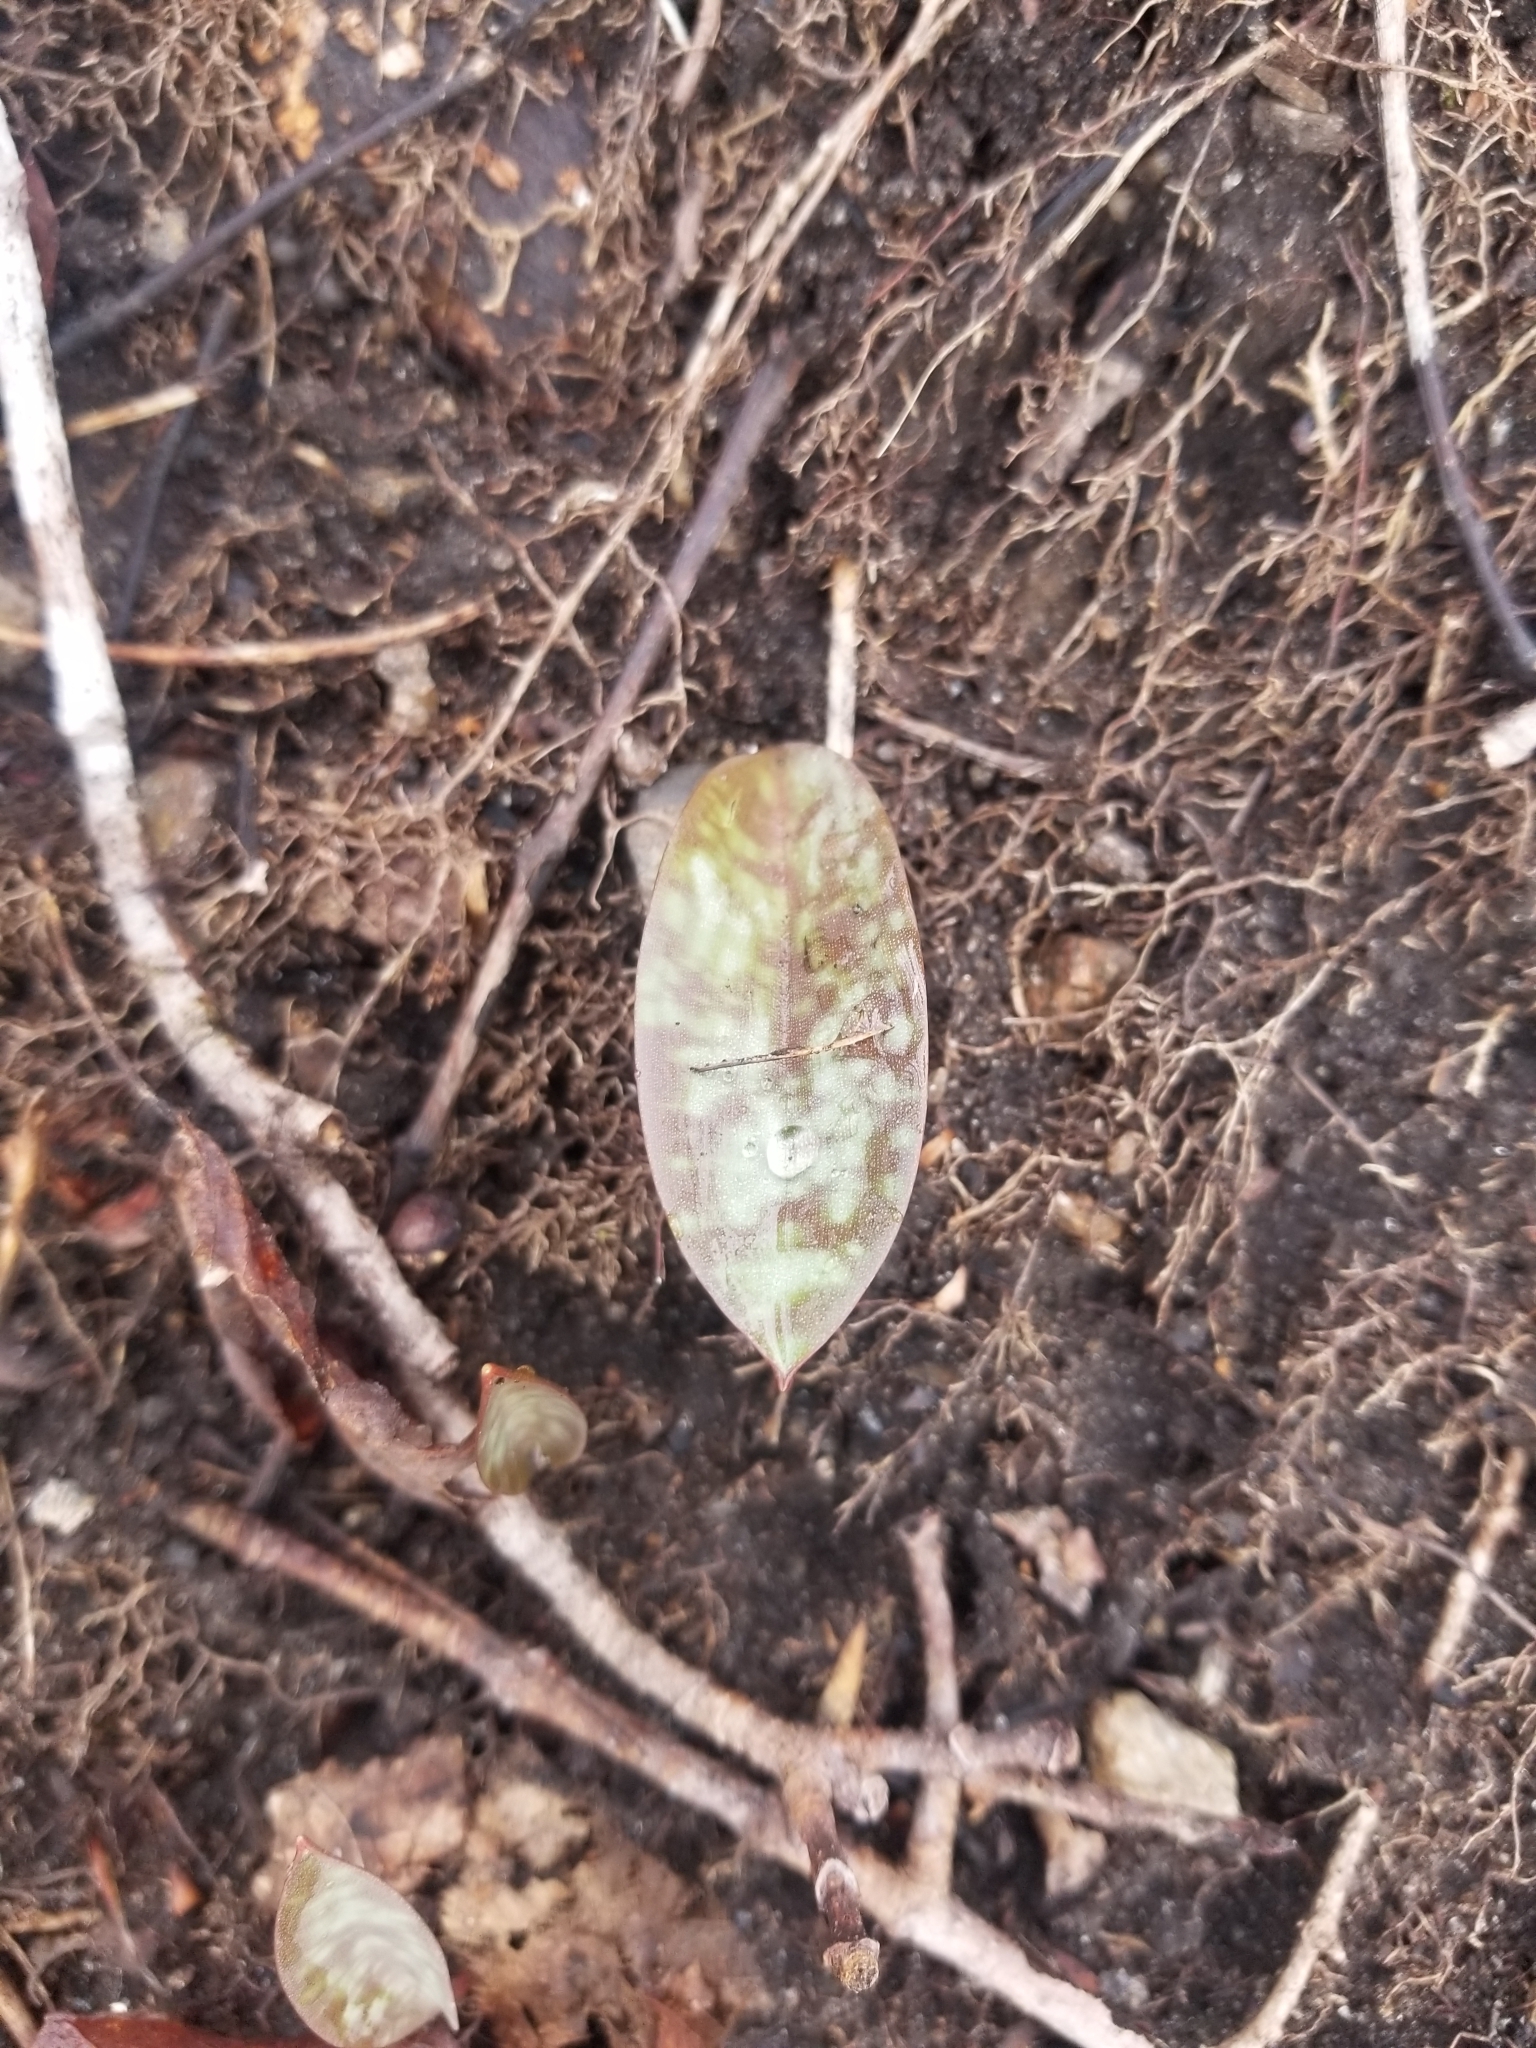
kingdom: Plantae
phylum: Tracheophyta
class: Liliopsida
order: Liliales
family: Liliaceae
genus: Erythronium
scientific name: Erythronium americanum
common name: Yellow adder's-tongue
